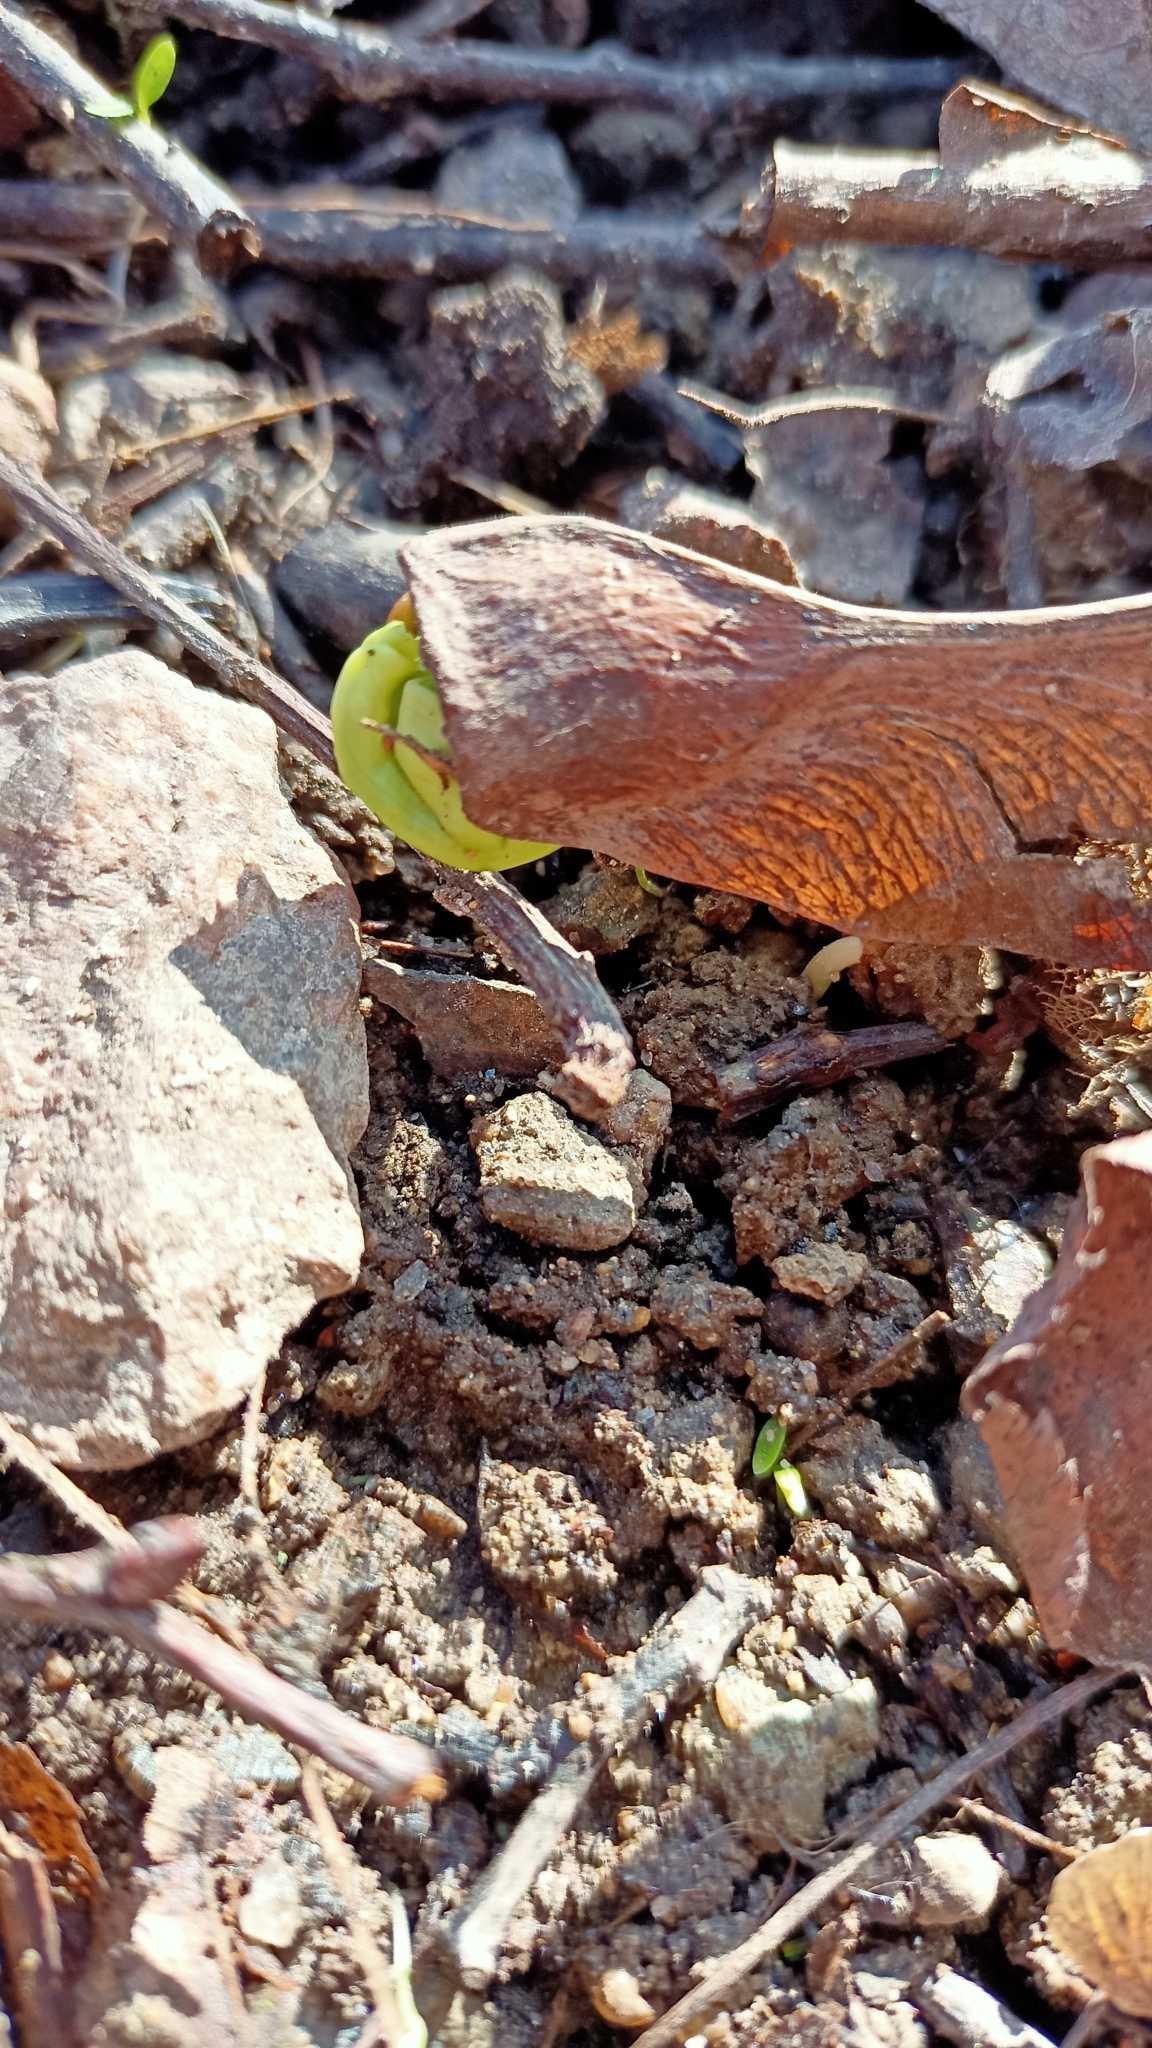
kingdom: Plantae
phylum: Tracheophyta
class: Magnoliopsida
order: Sapindales
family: Sapindaceae
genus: Acer
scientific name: Acer platanoides
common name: Norway maple
